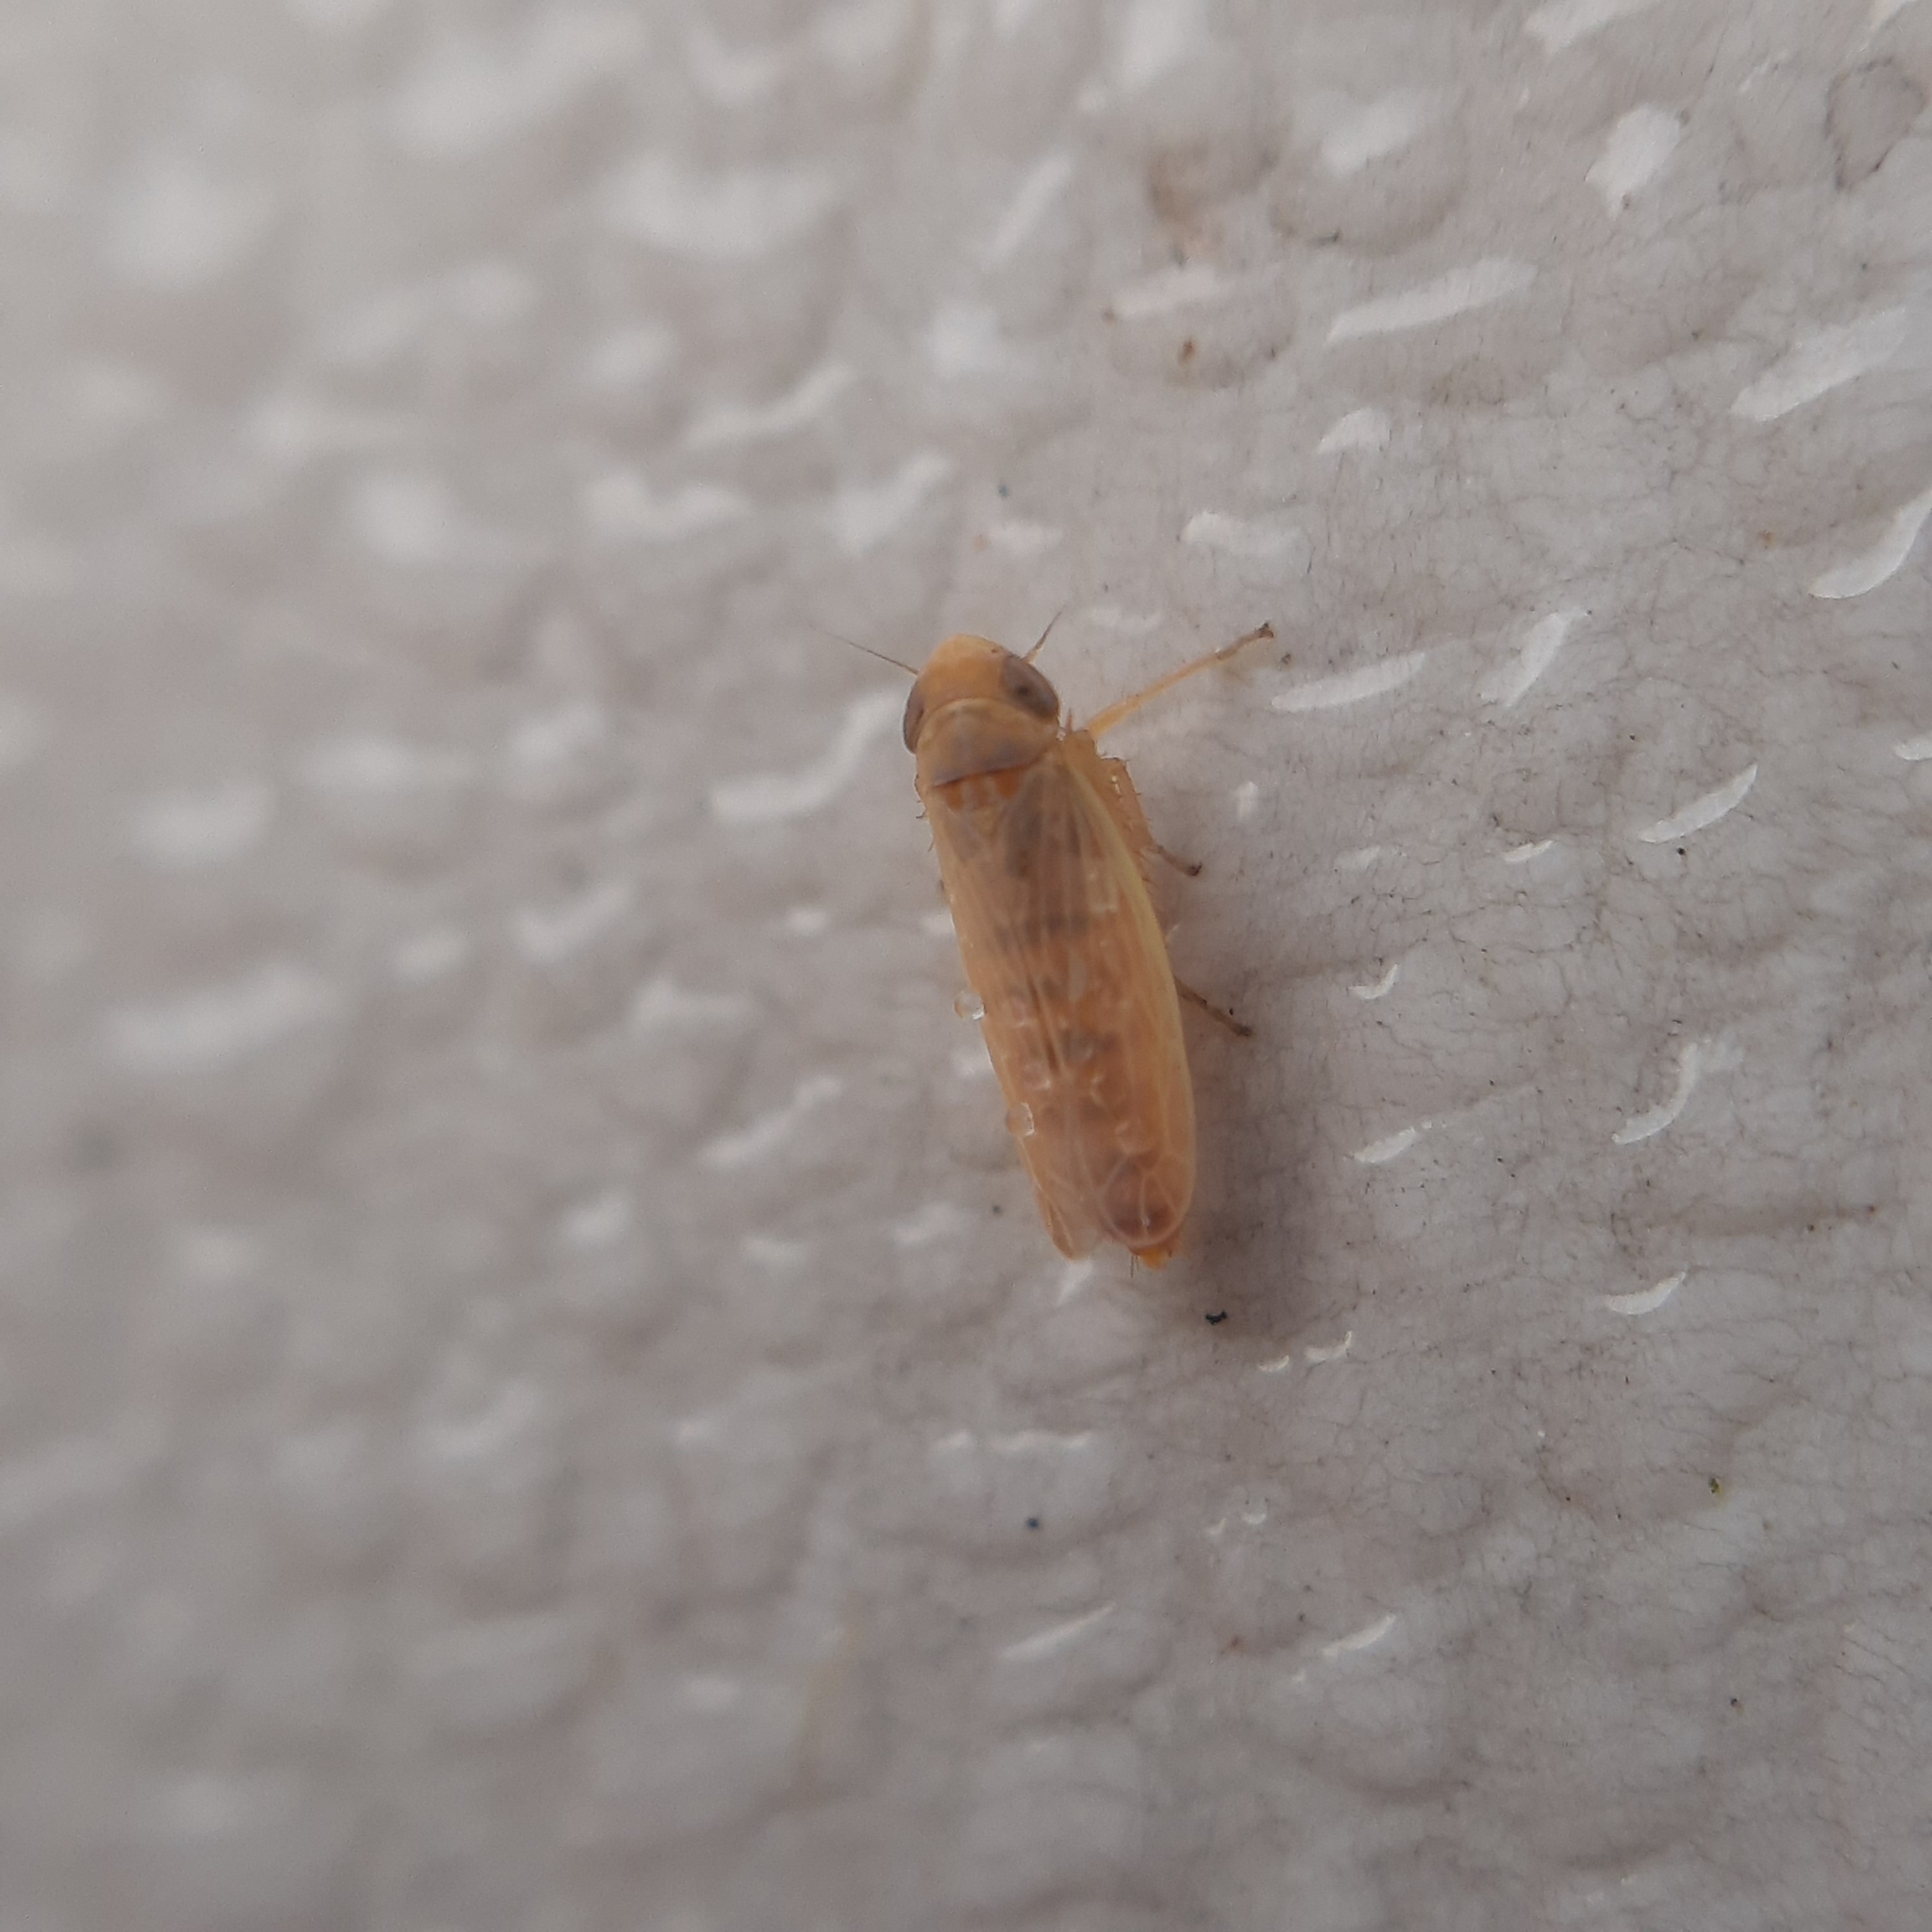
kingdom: Animalia
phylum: Arthropoda
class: Insecta
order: Hemiptera
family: Cicadellidae
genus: Psammotettix
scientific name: Psammotettix
